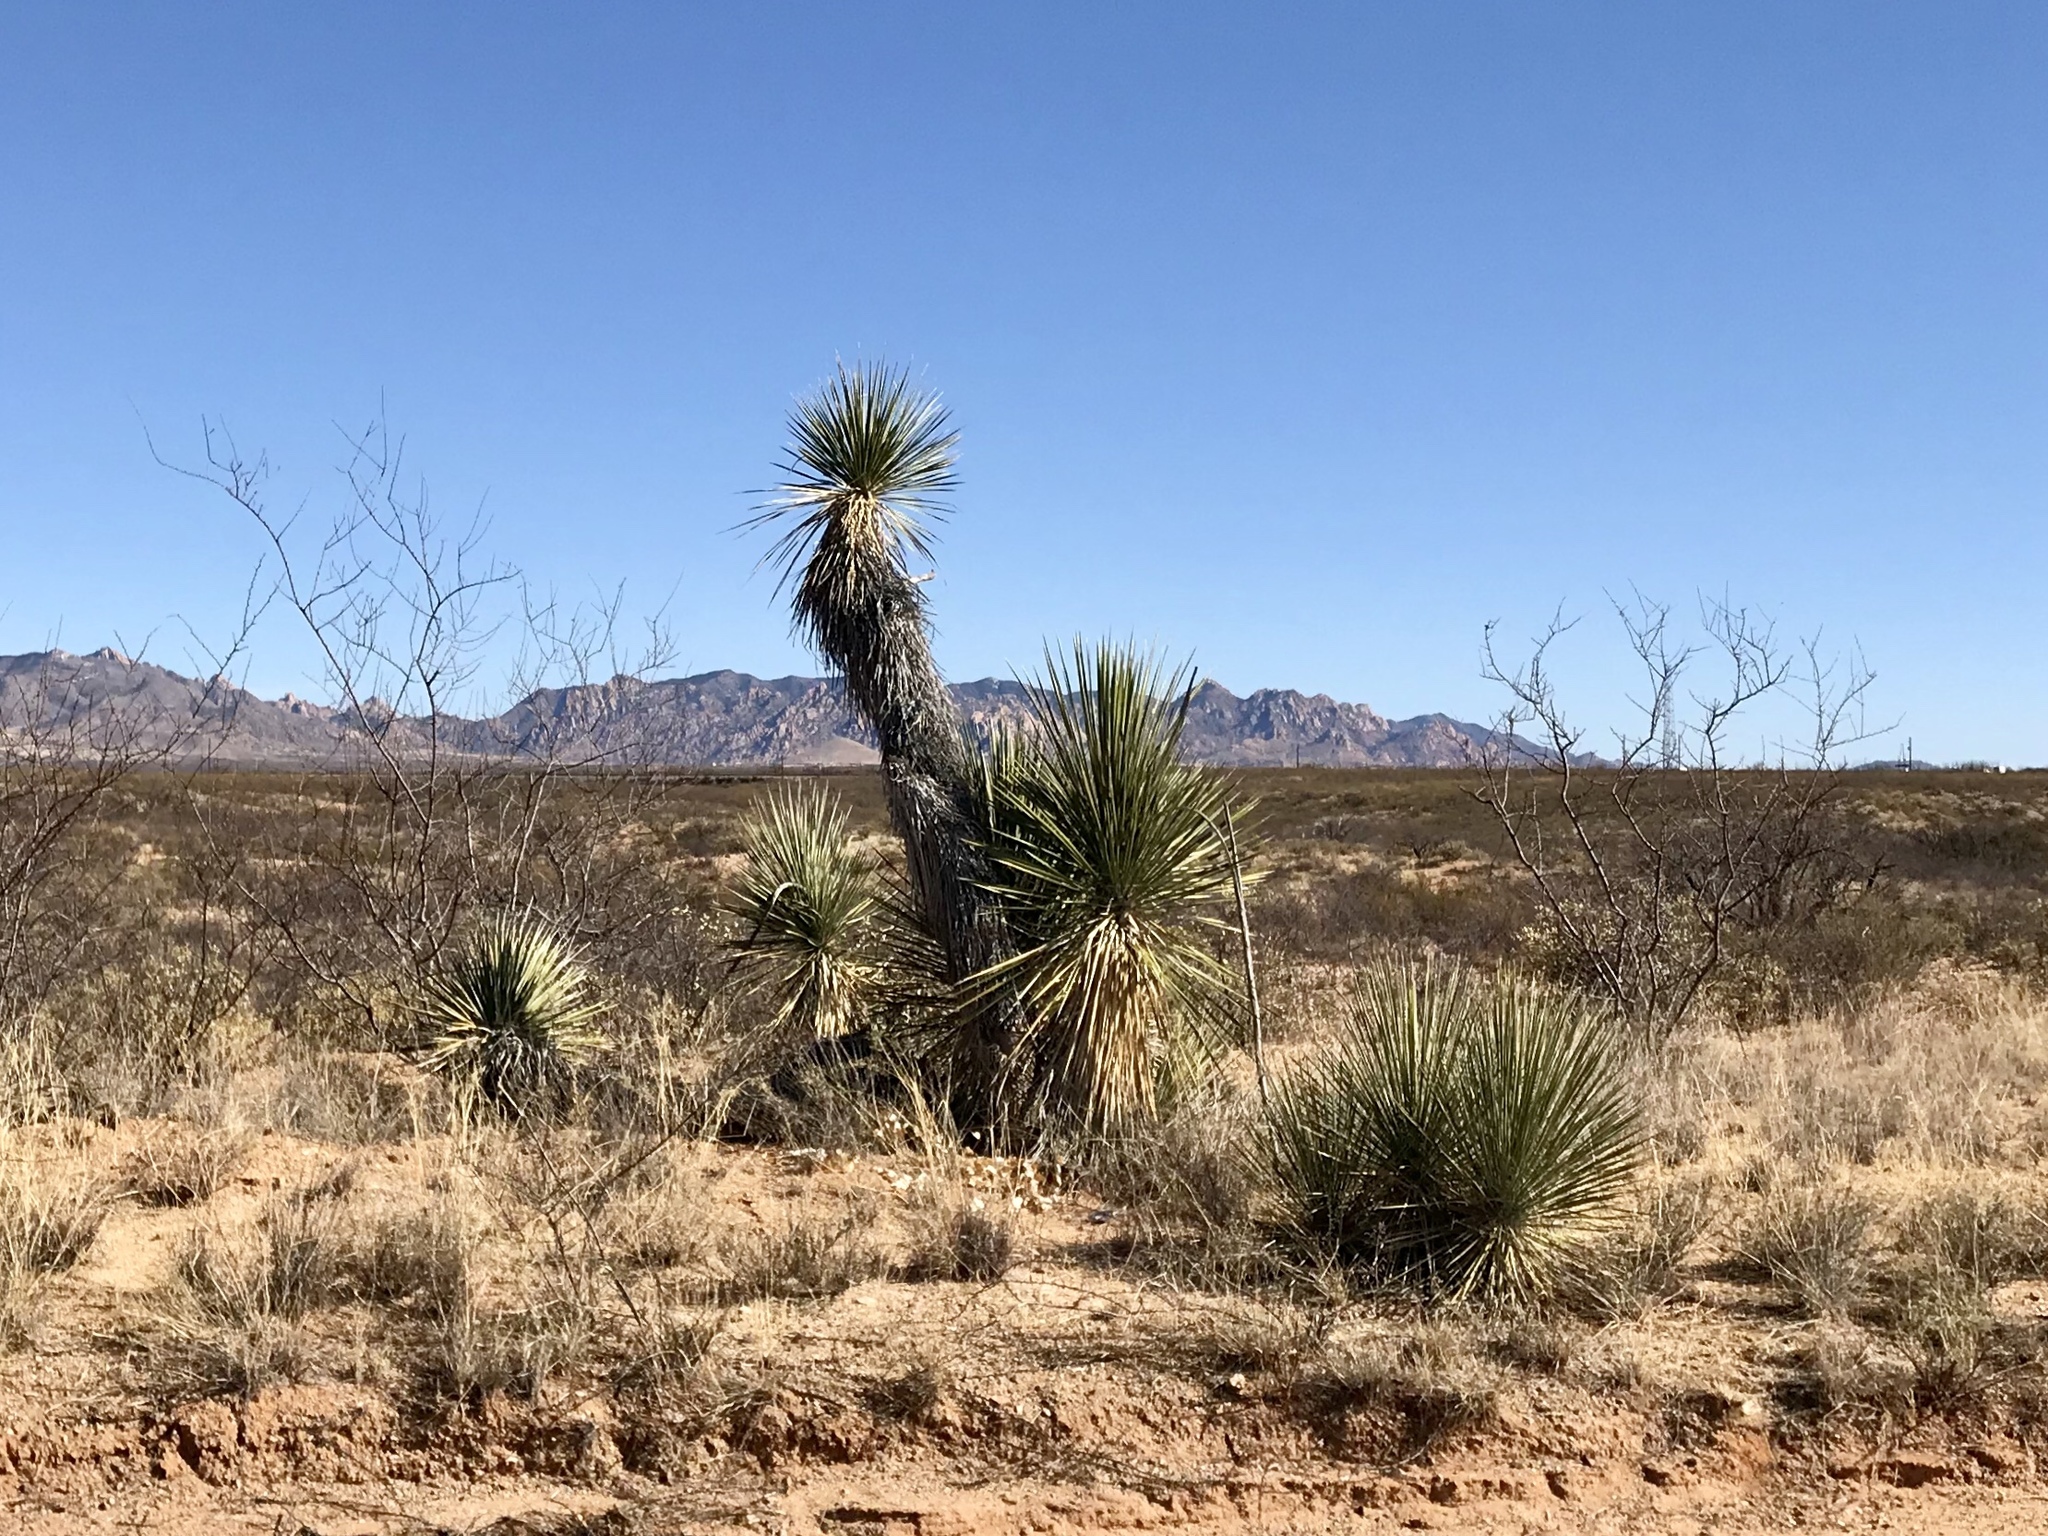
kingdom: Plantae
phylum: Tracheophyta
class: Liliopsida
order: Asparagales
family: Asparagaceae
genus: Yucca
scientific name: Yucca elata
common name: Palmella
